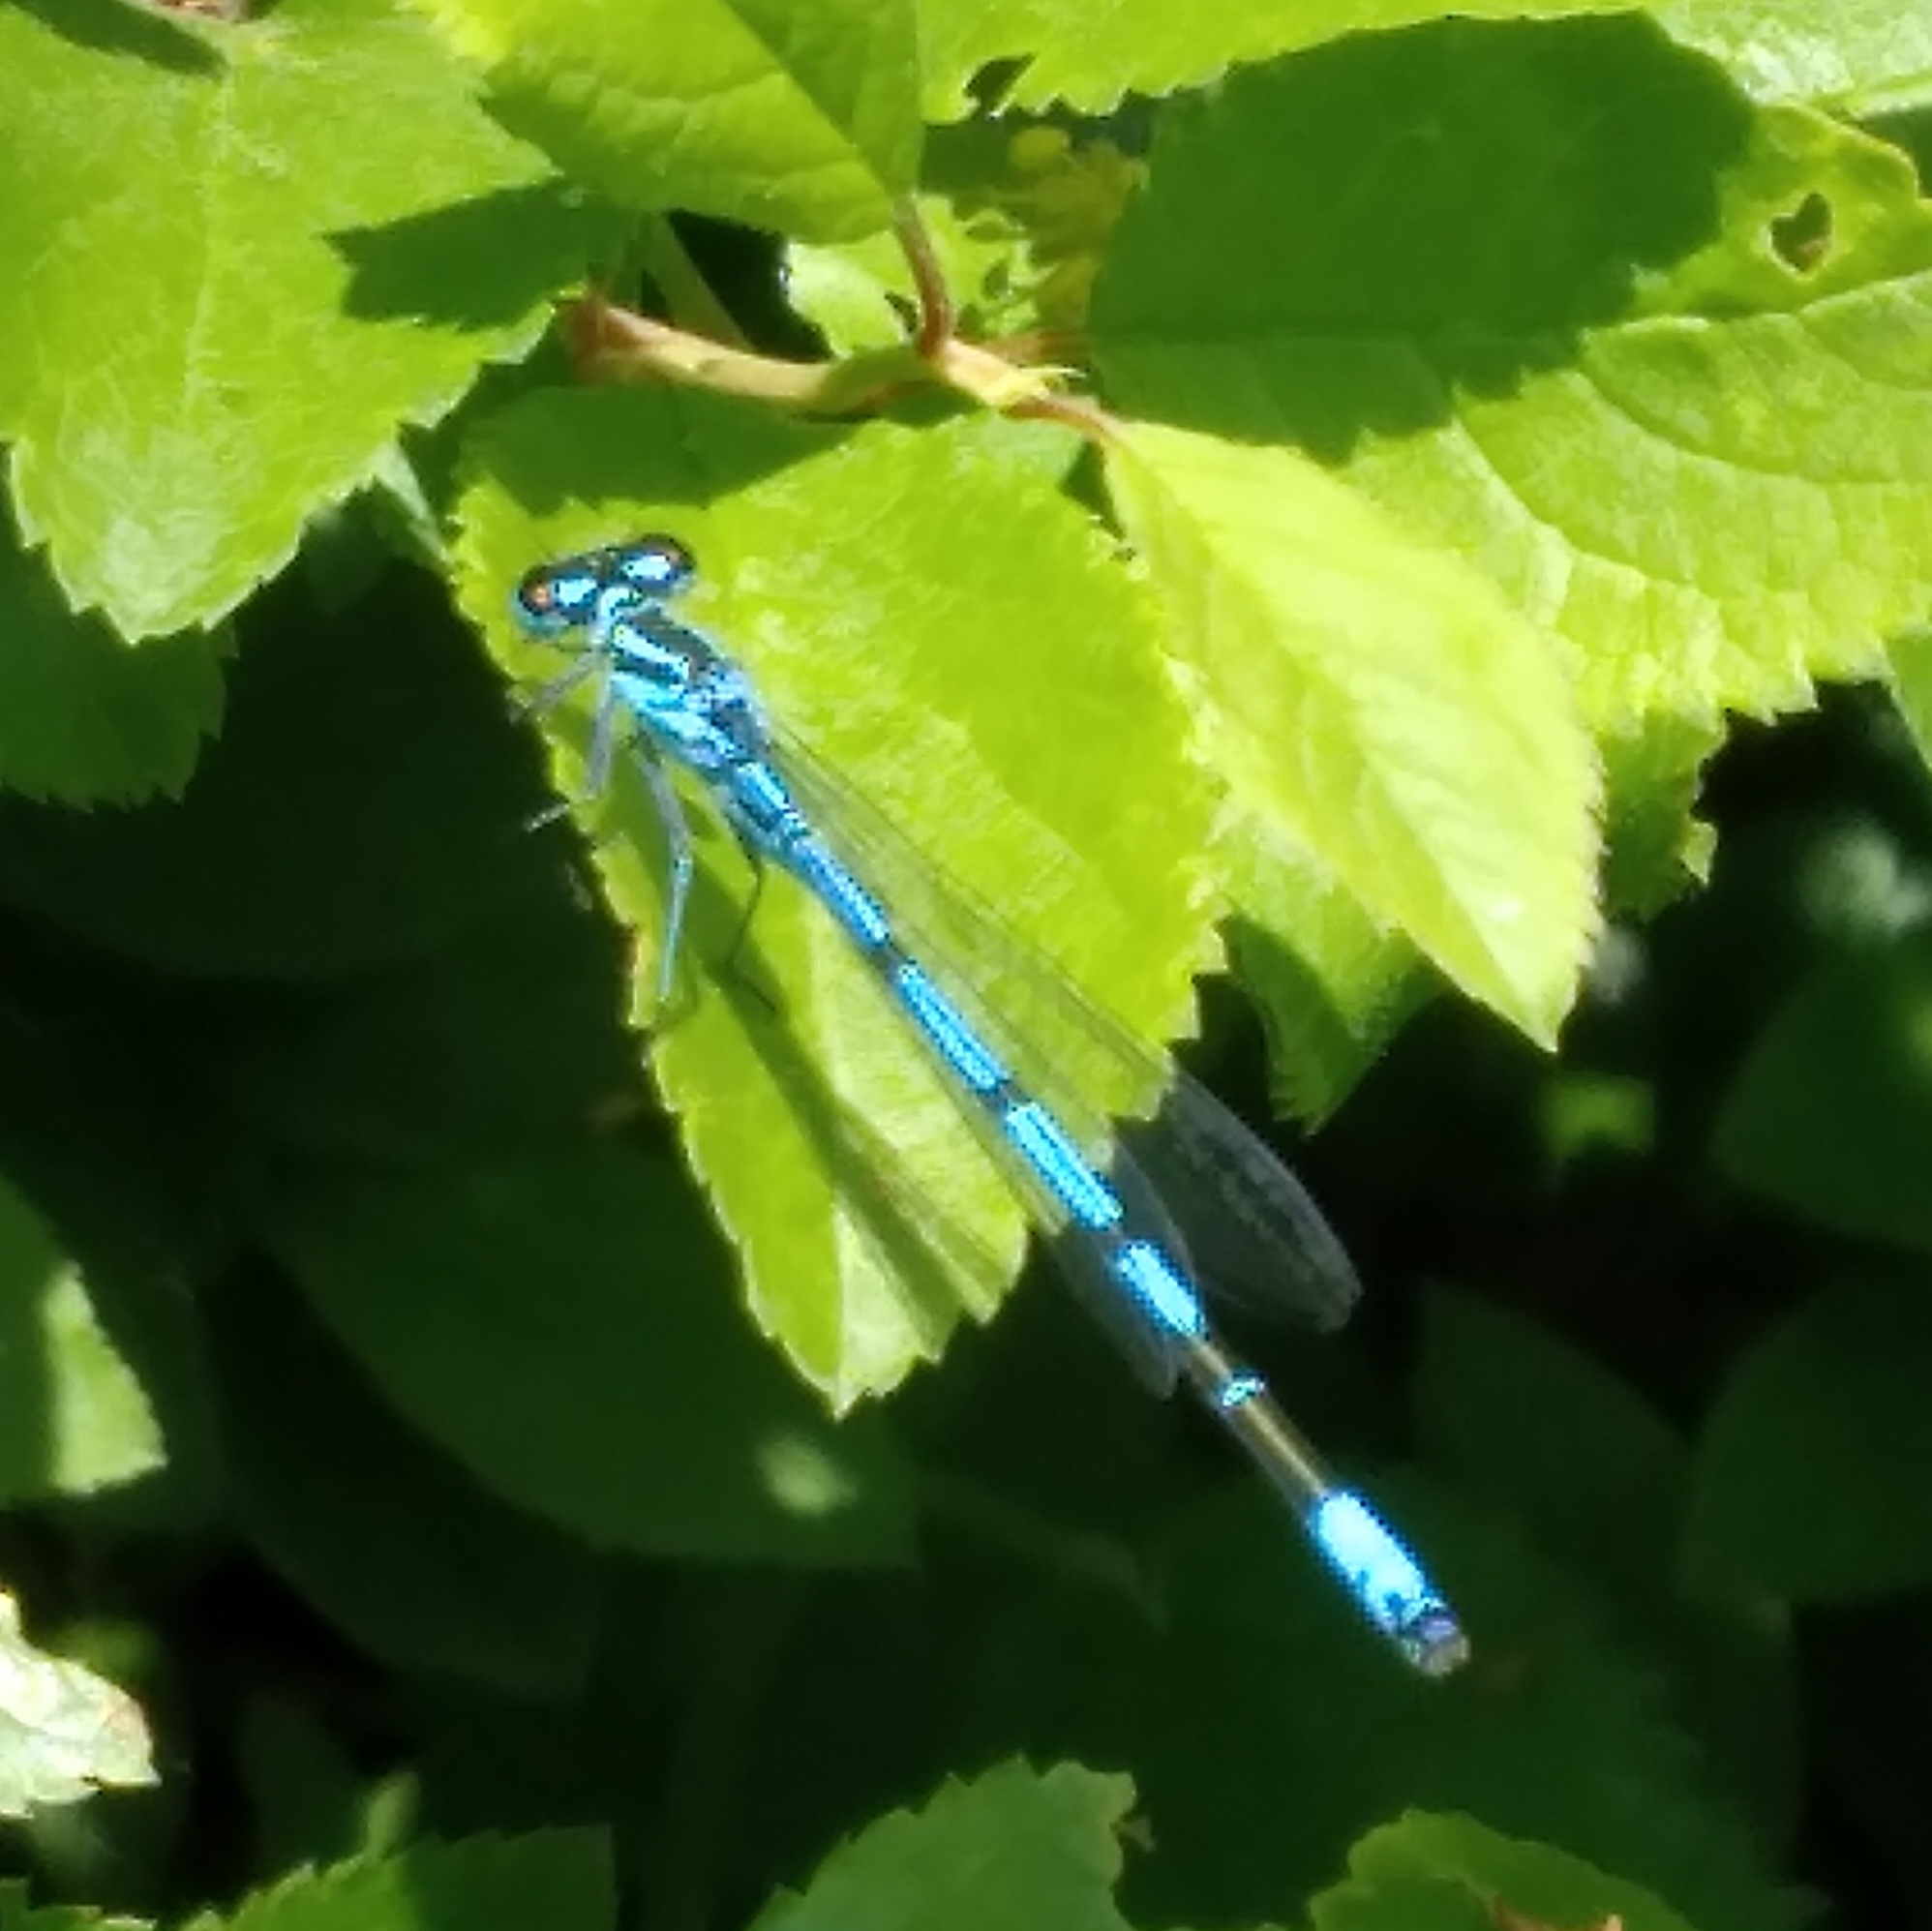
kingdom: Animalia
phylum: Arthropoda
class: Insecta
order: Odonata
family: Coenagrionidae
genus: Coenagrion
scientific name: Coenagrion puella
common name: Azure damselfly
